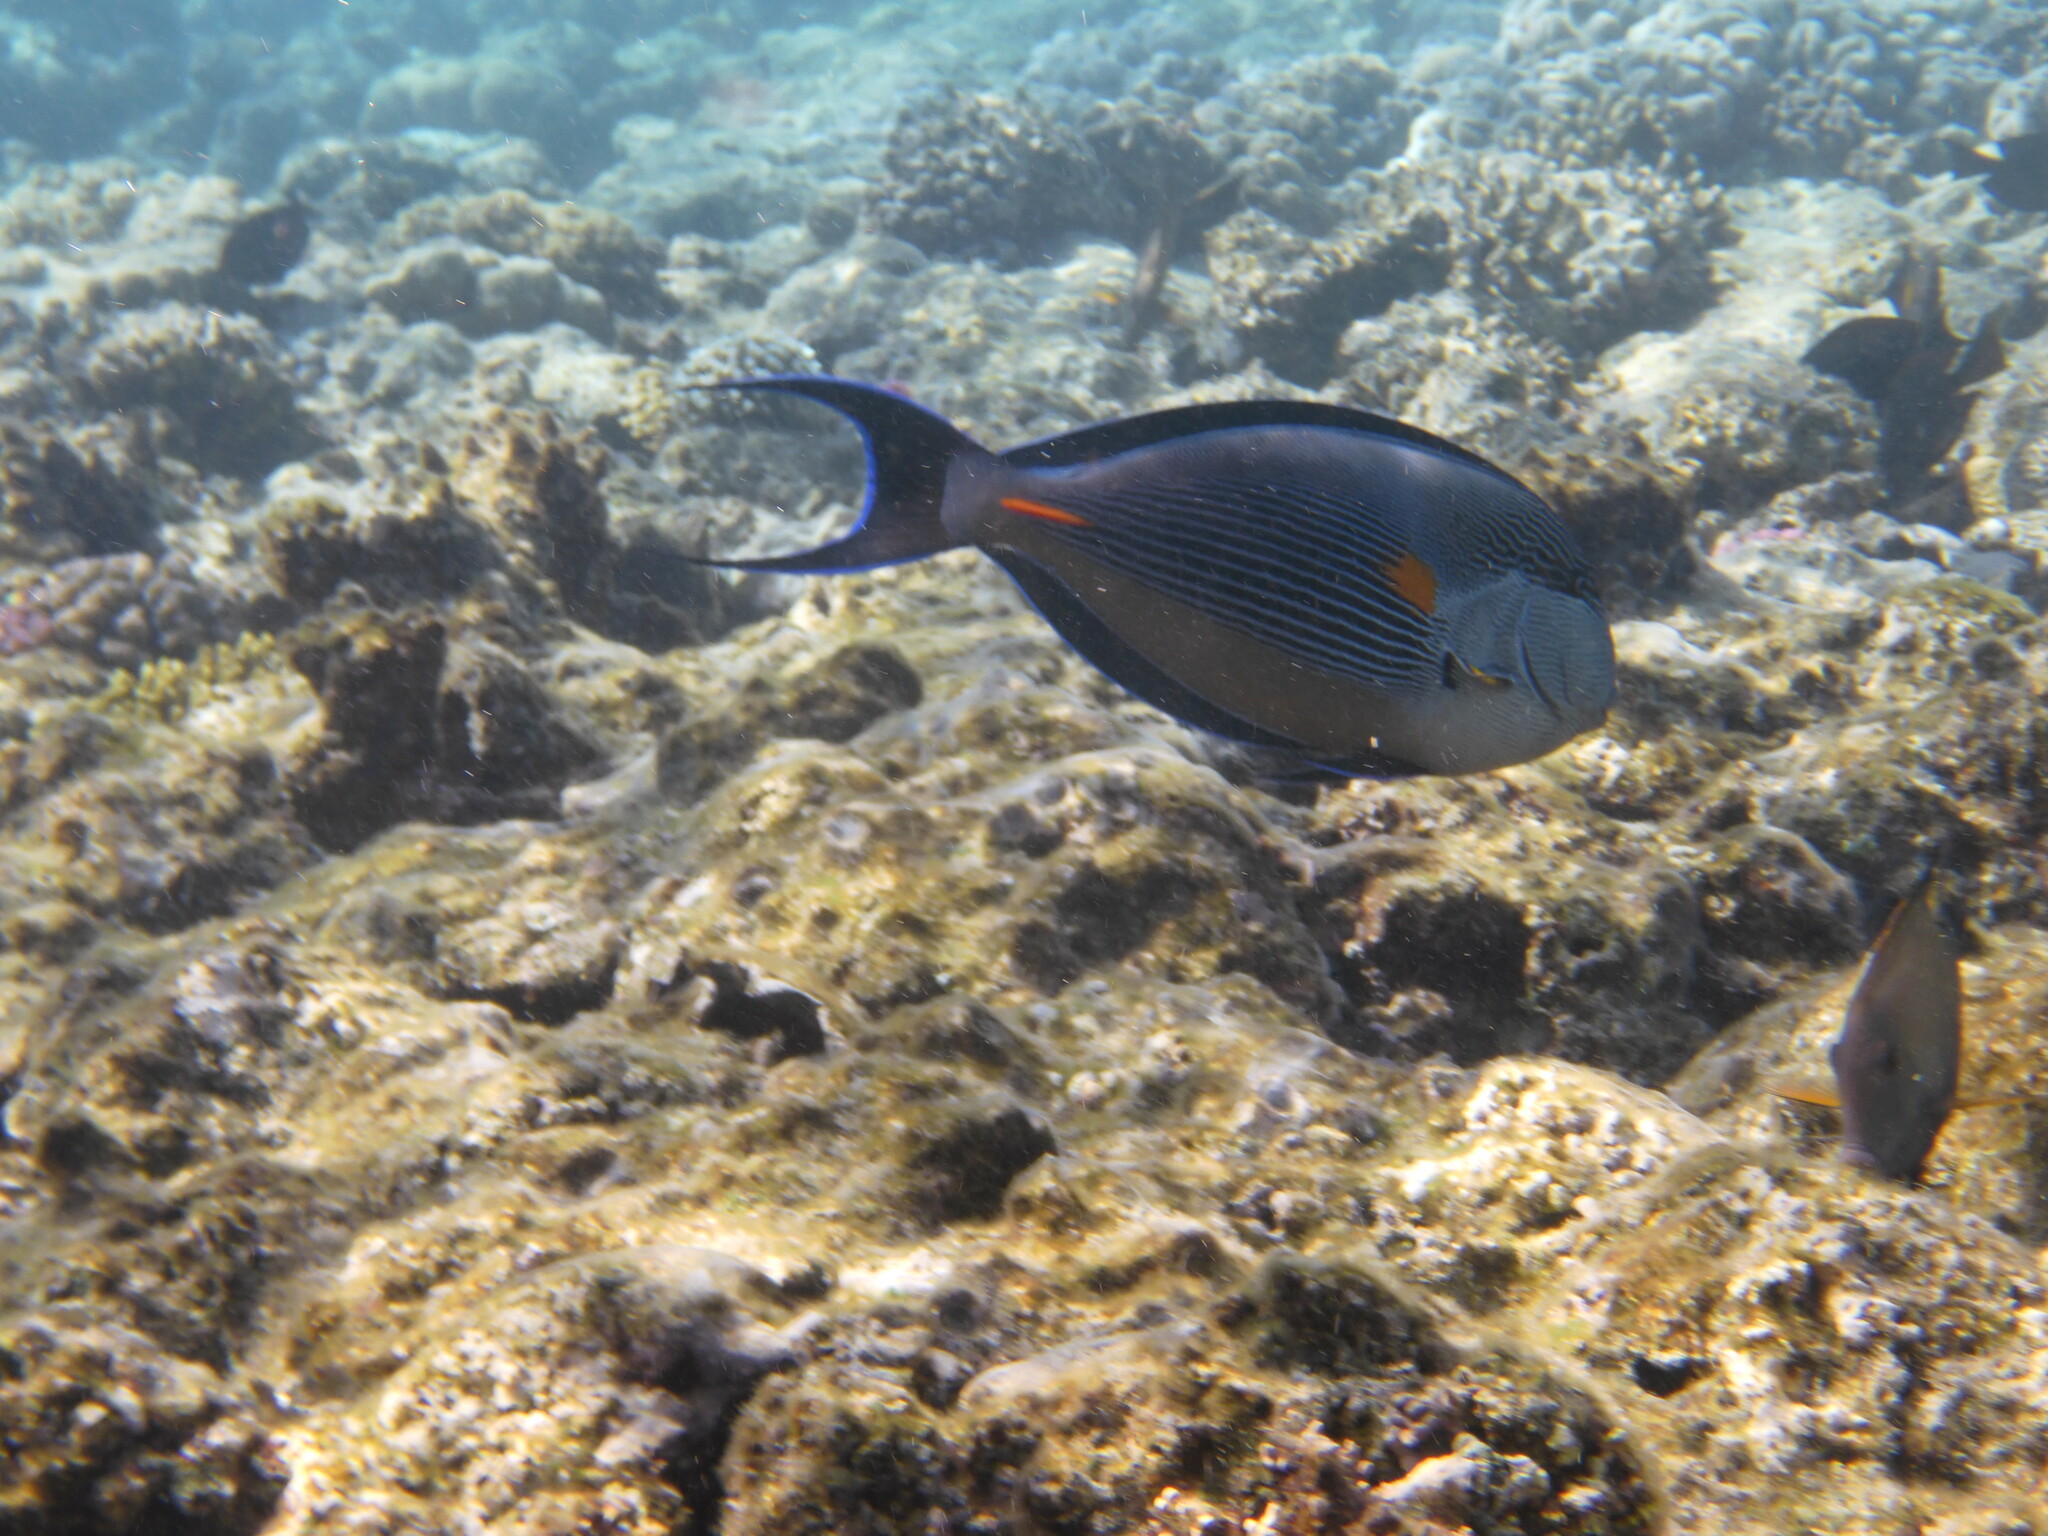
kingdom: Animalia
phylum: Chordata
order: Perciformes
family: Acanthuridae
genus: Acanthurus
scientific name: Acanthurus sohal
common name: Red sea surgeonfish
